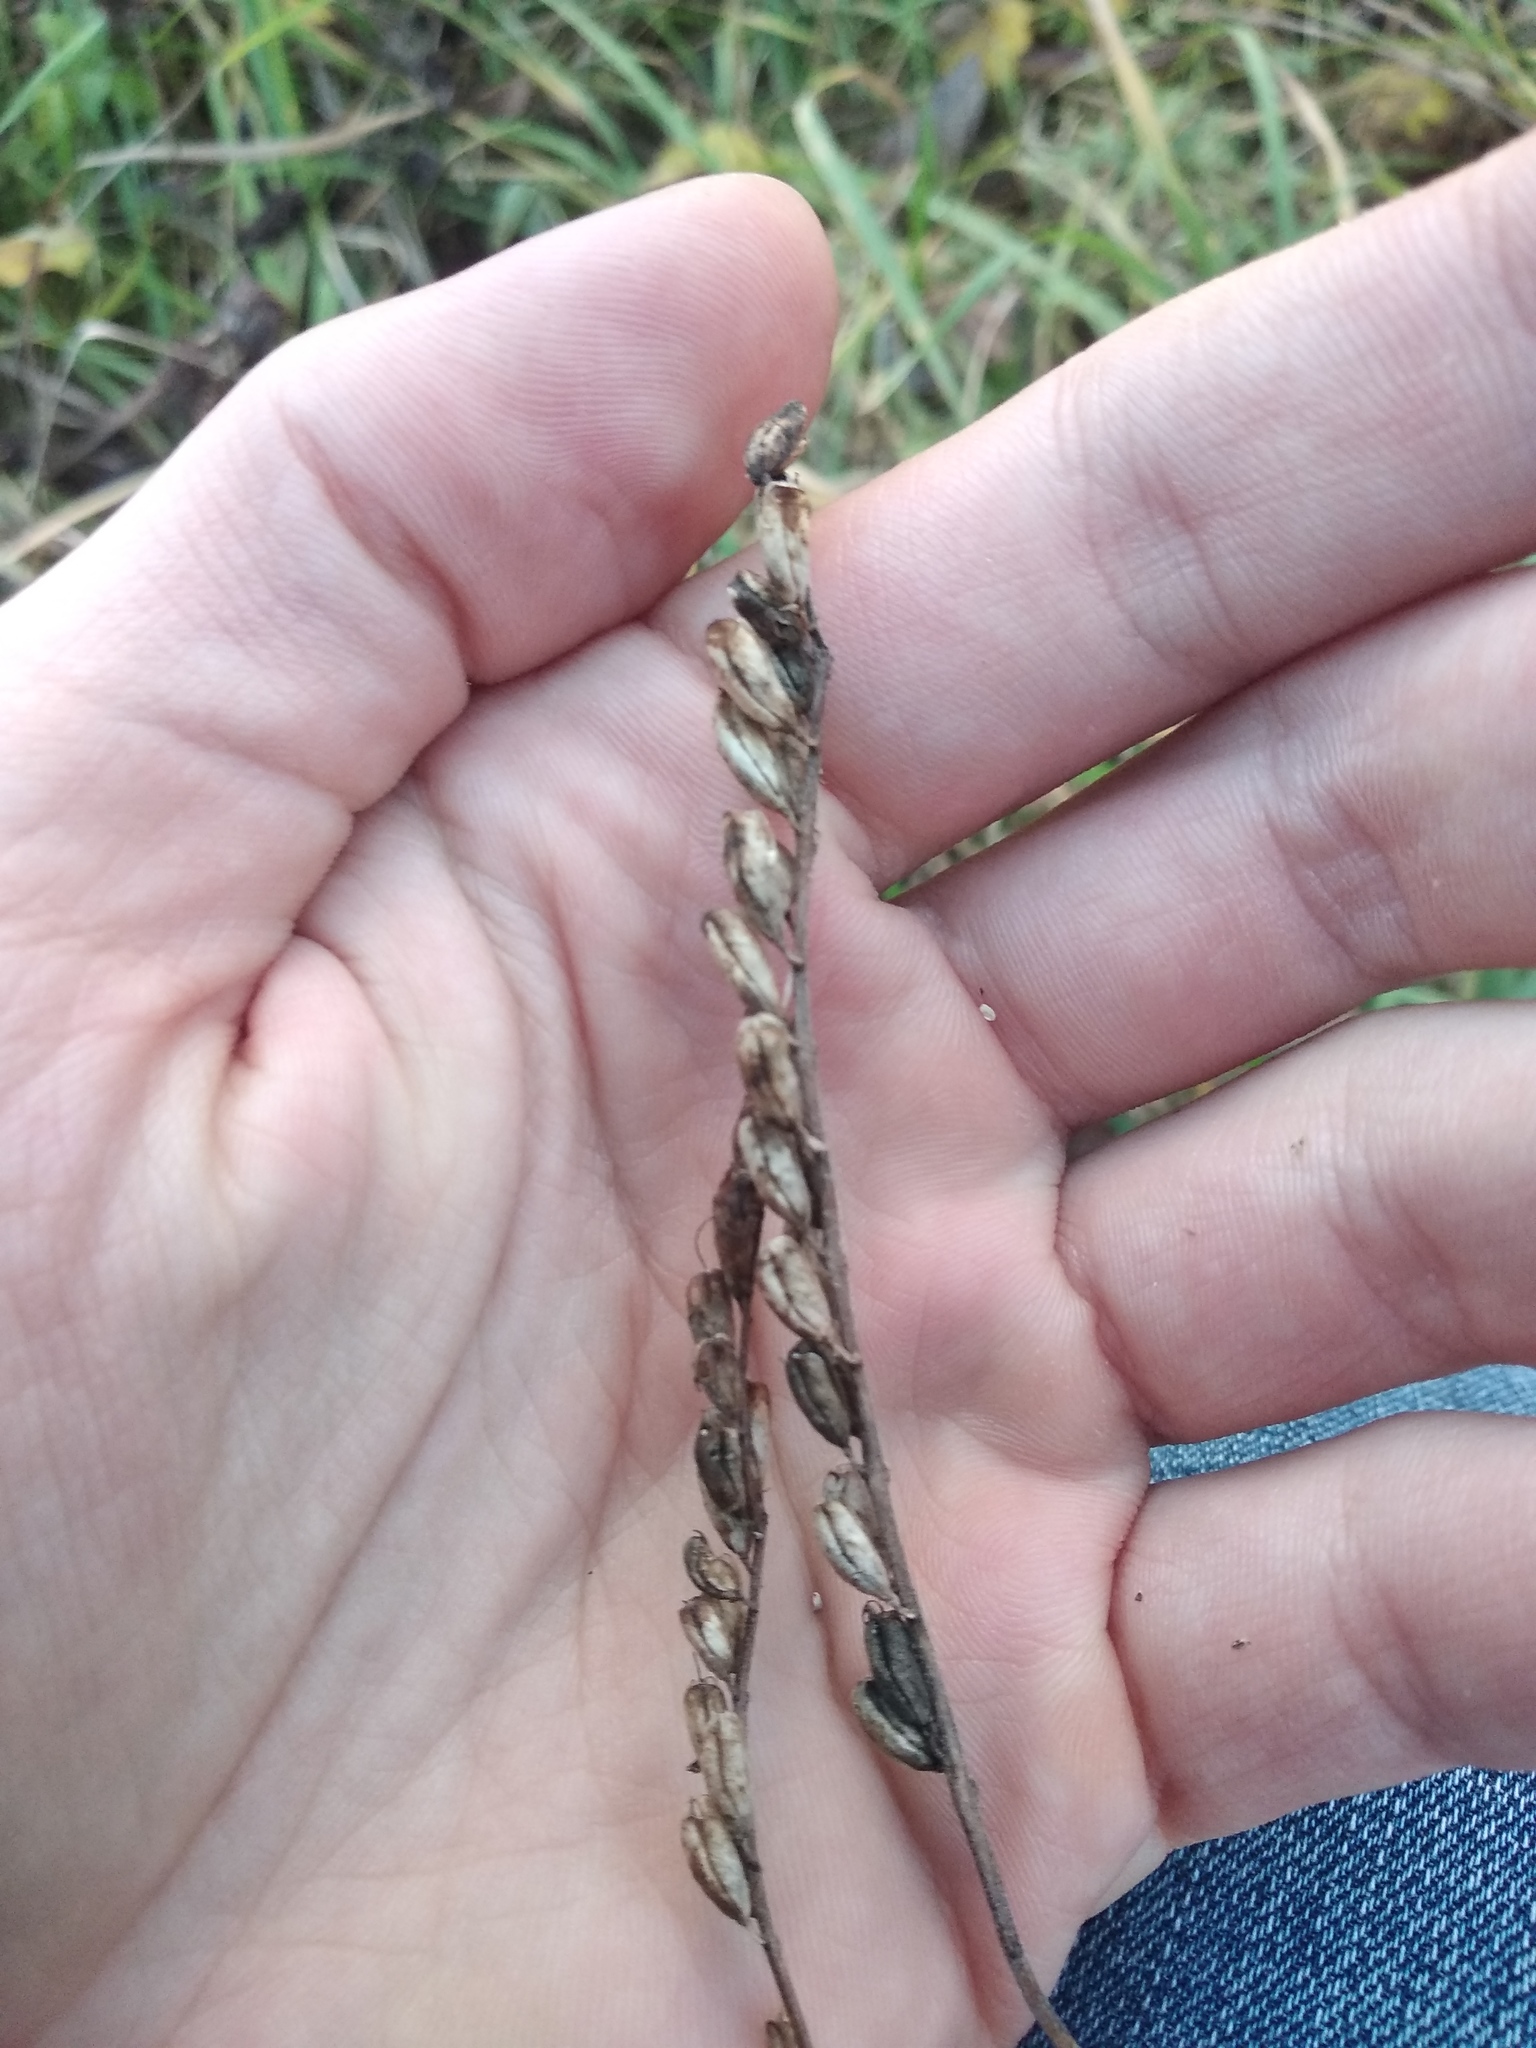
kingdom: Plantae
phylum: Tracheophyta
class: Magnoliopsida
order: Lamiales
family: Orobanchaceae
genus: Odontites
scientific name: Odontites vulgaris
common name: Broomrape
